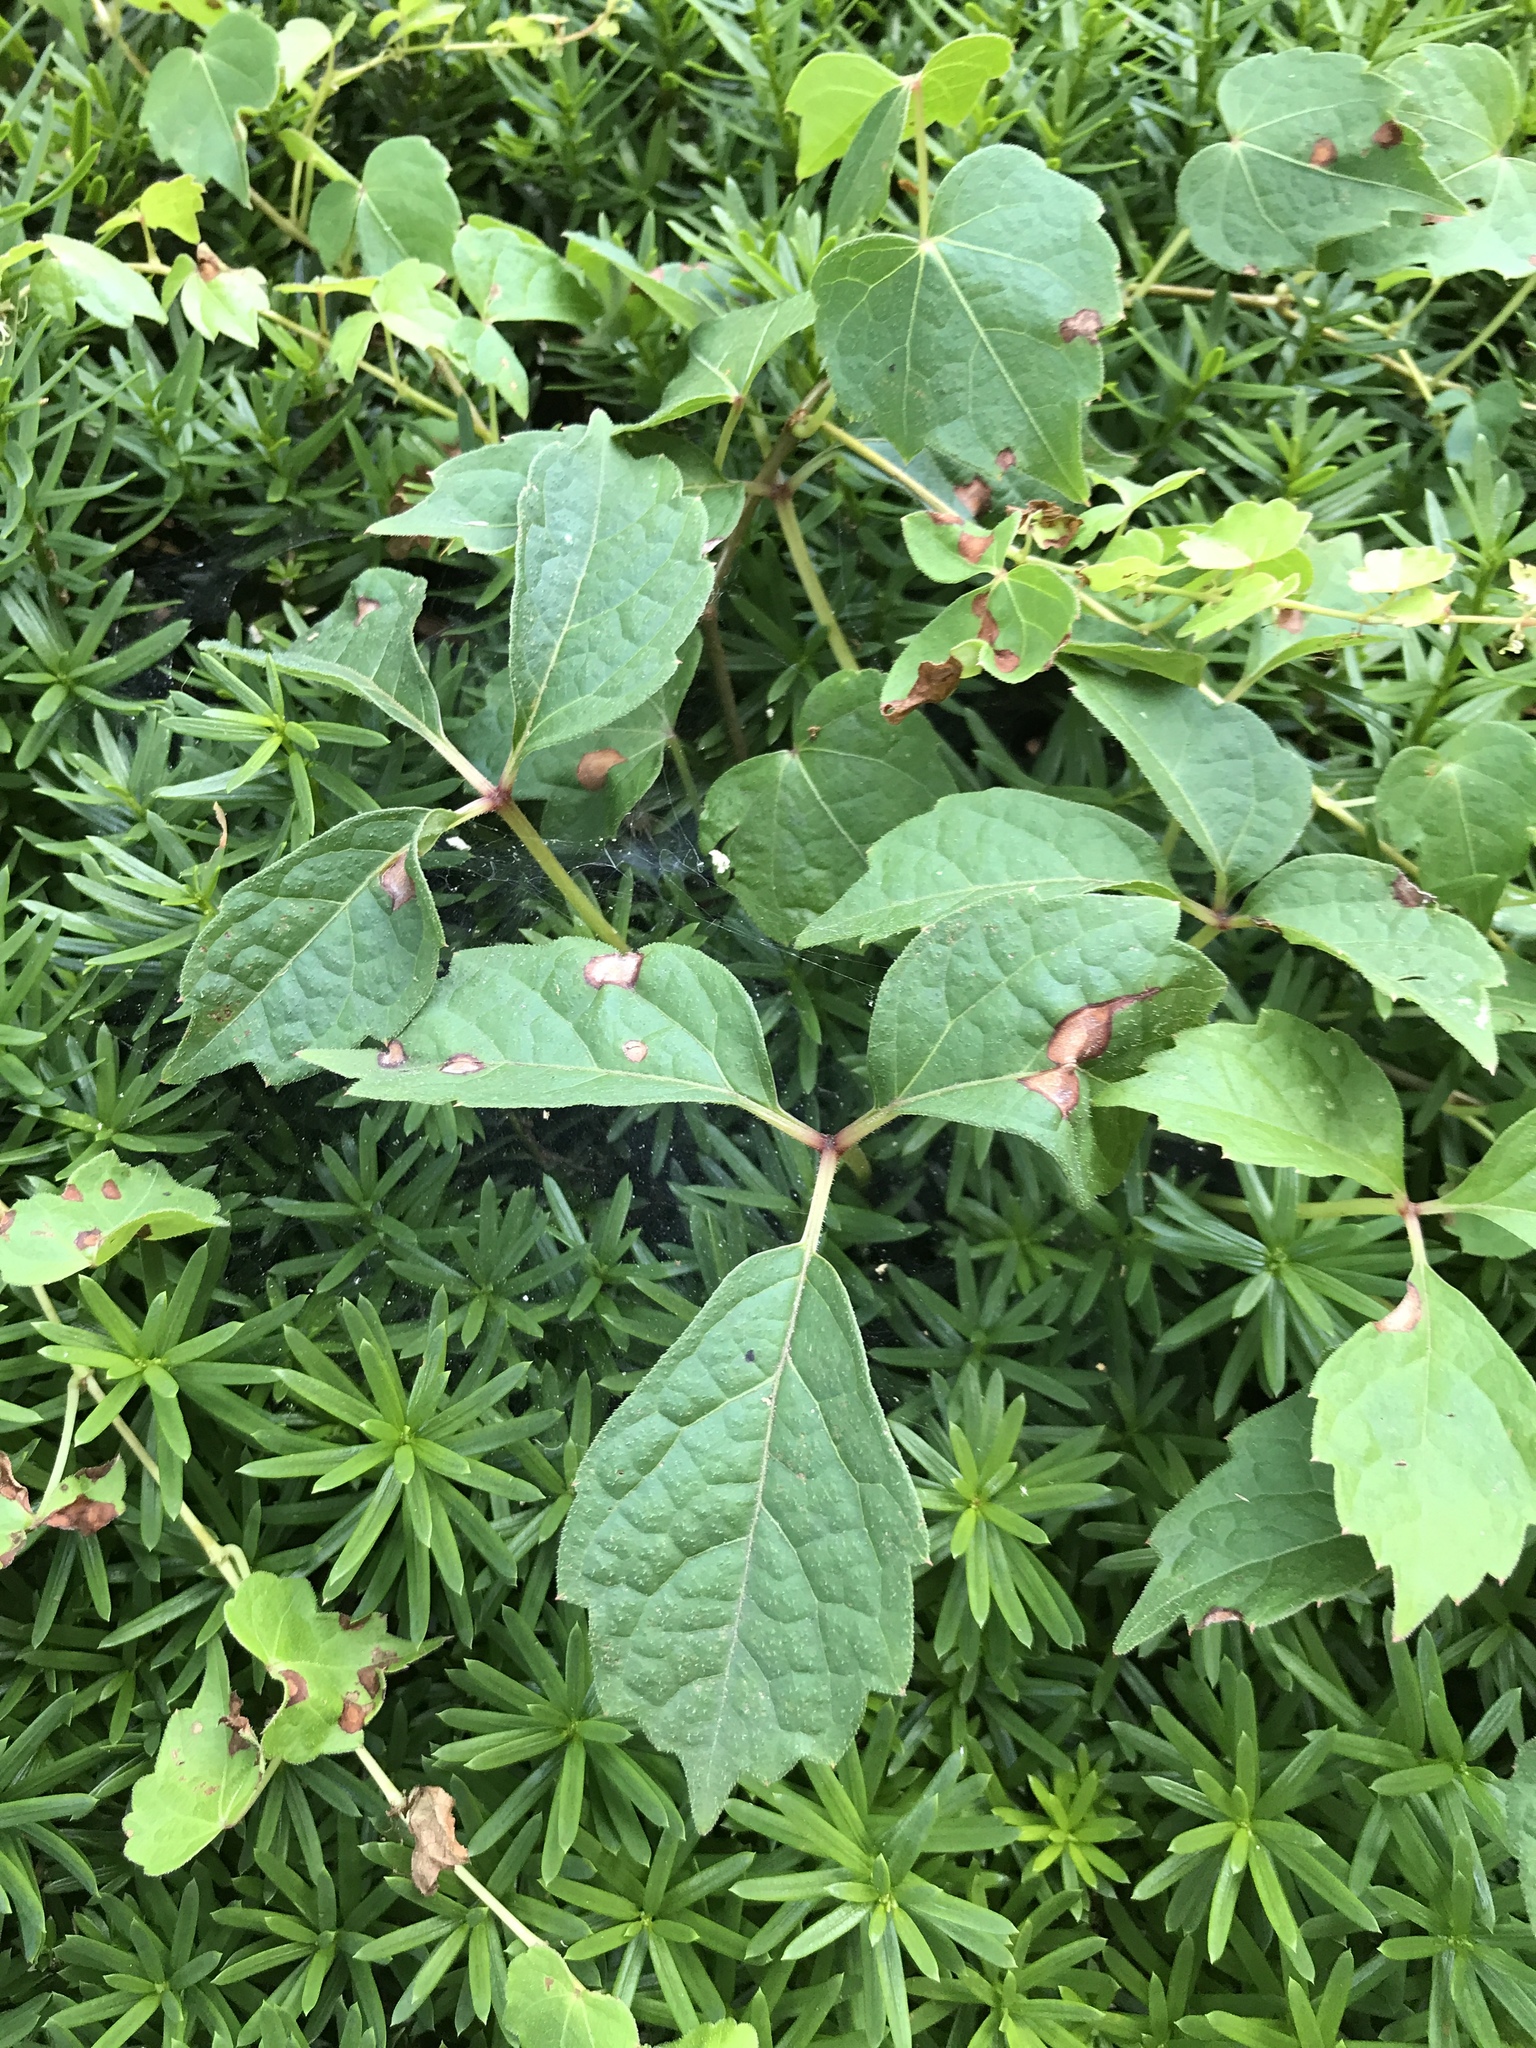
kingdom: Plantae
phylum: Tracheophyta
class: Magnoliopsida
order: Vitales
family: Vitaceae
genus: Parthenocissus
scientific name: Parthenocissus tricuspidata
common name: Boston ivy
